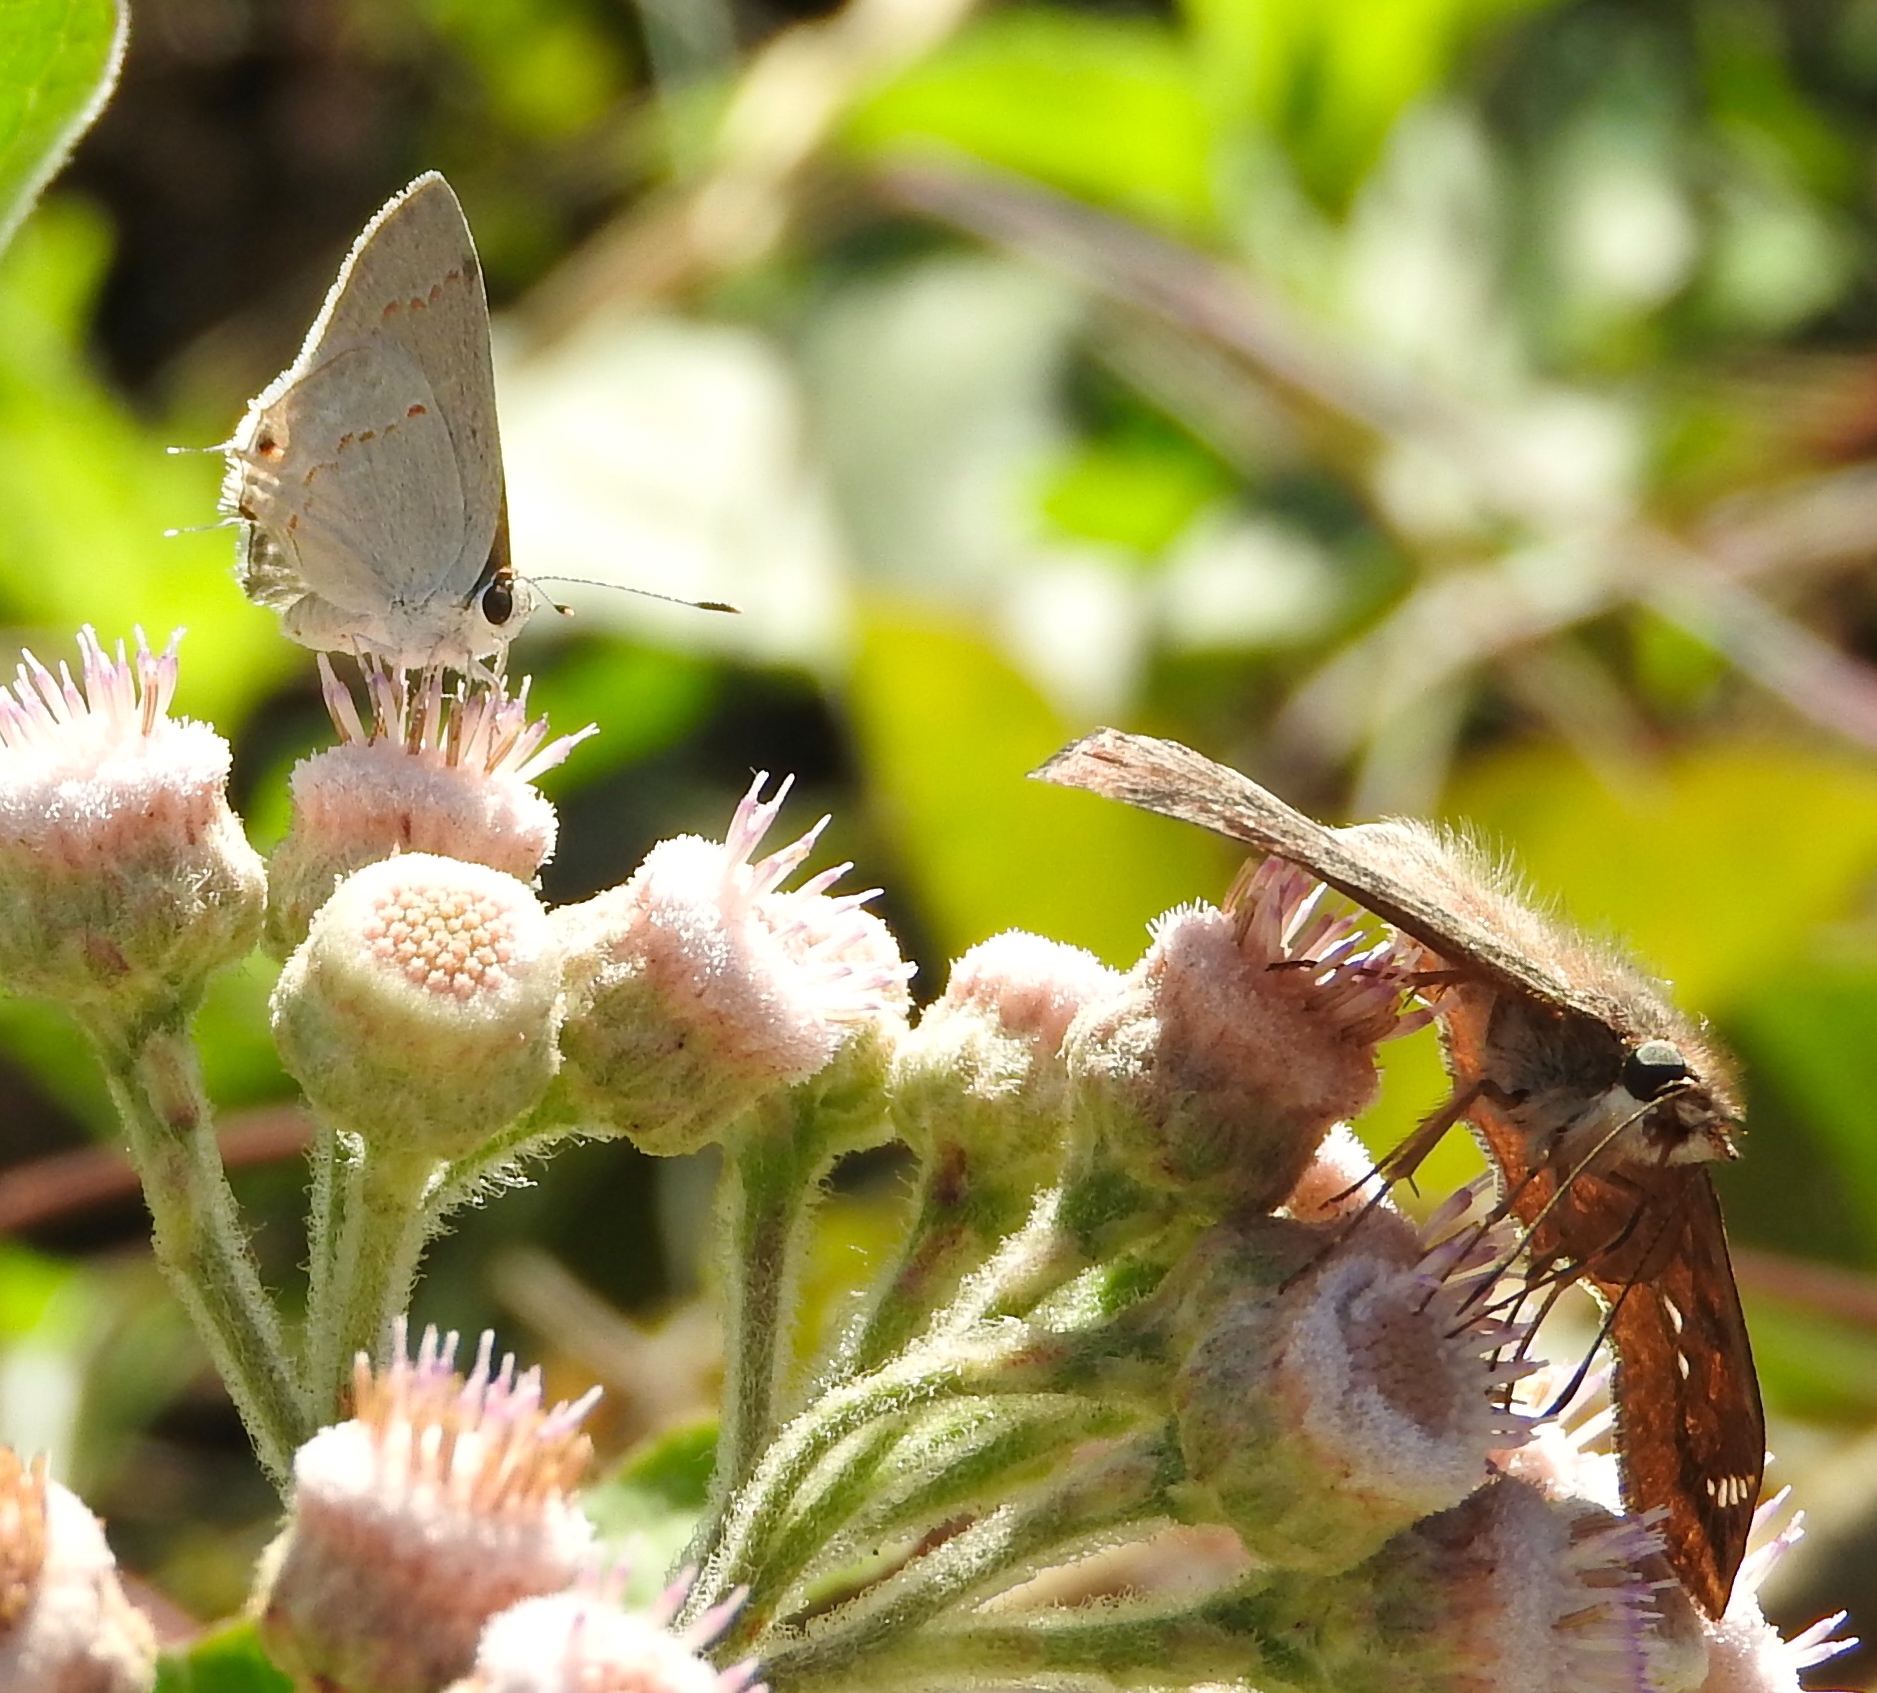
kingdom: Animalia
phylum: Arthropoda
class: Insecta
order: Lepidoptera
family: Lycaenidae
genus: Thecla
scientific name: Thecla rufofusca
